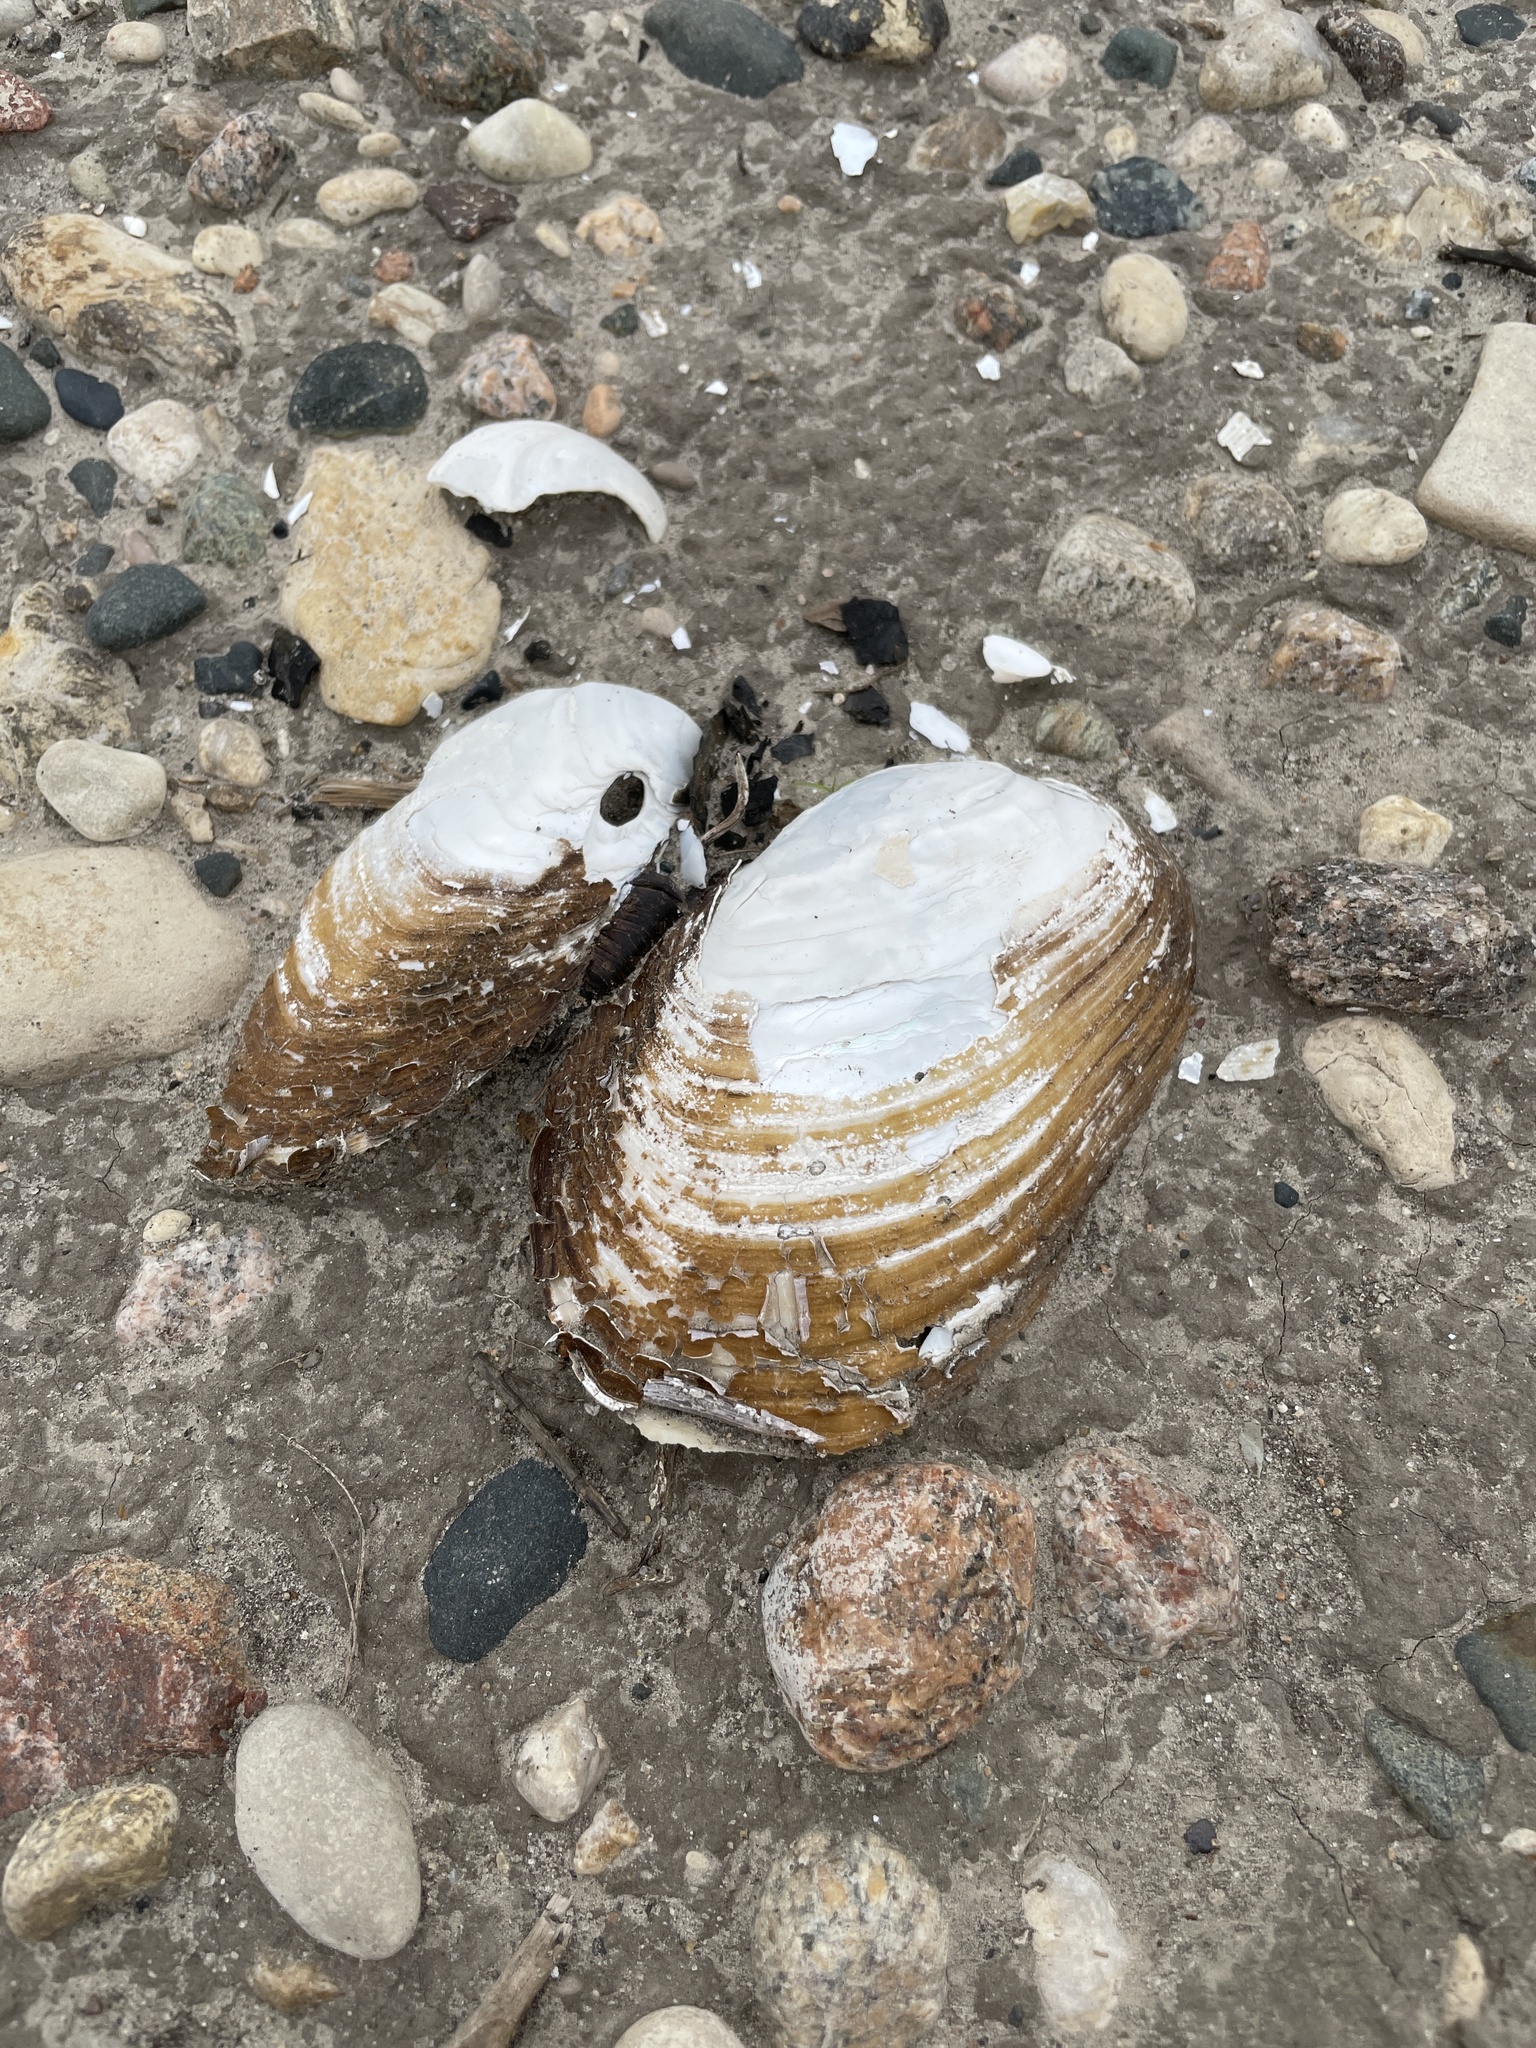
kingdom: Animalia
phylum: Mollusca
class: Bivalvia
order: Unionida
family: Unionidae
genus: Lampsilis
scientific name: Lampsilis siliquoidea
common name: Fatmucket
